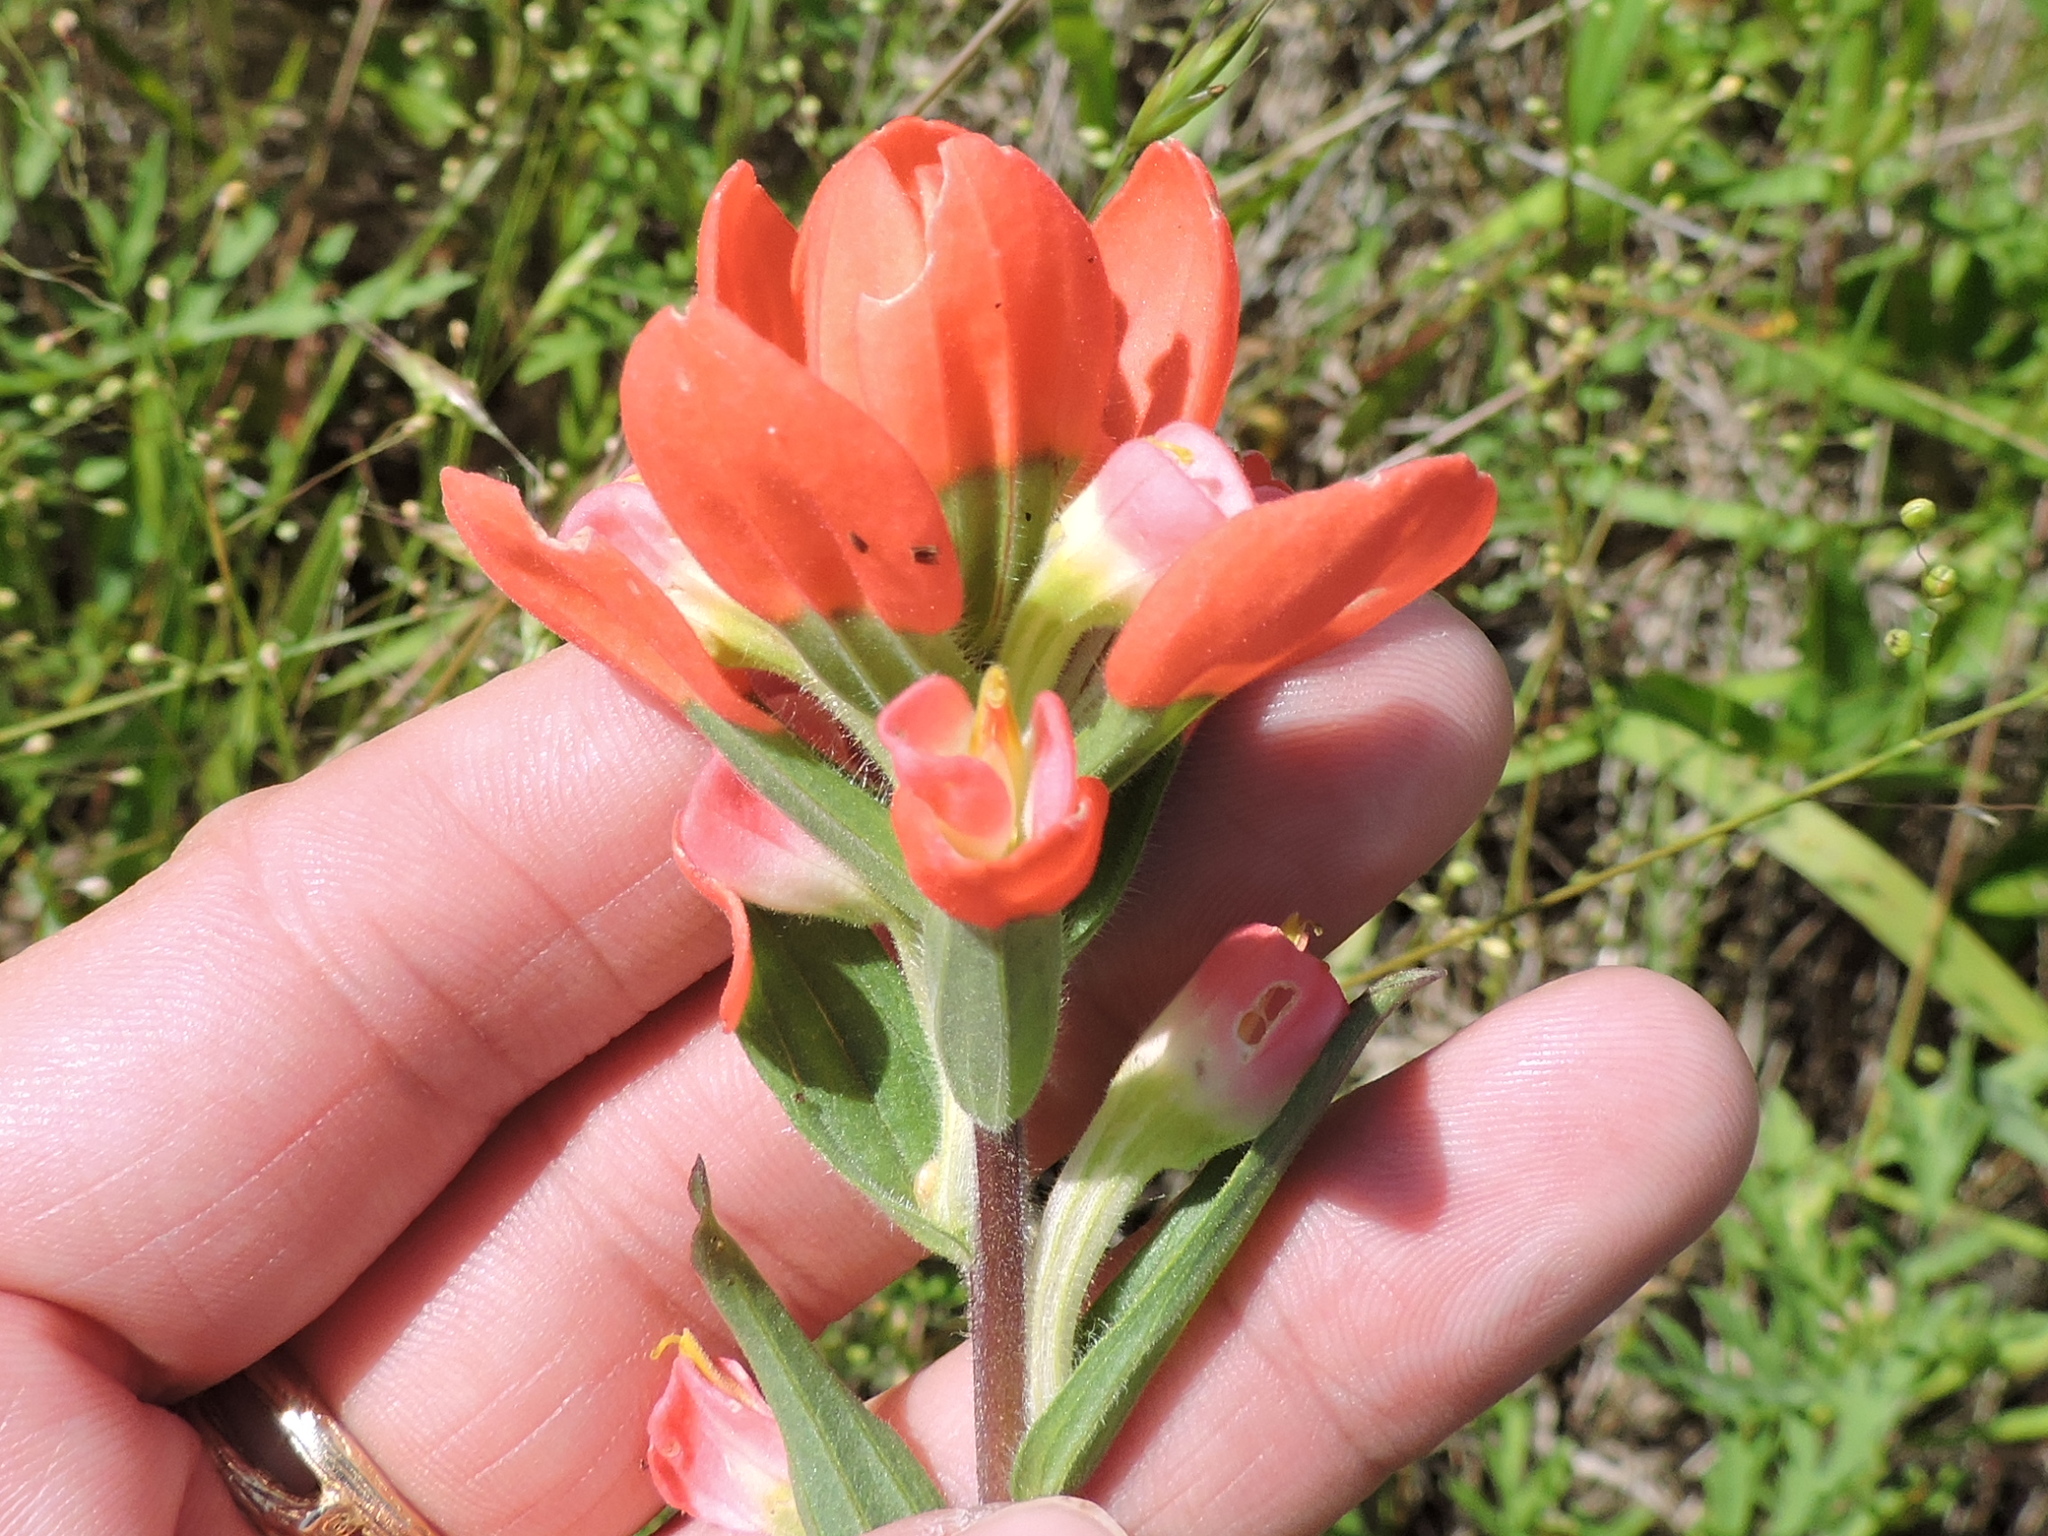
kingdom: Plantae
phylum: Tracheophyta
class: Magnoliopsida
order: Lamiales
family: Orobanchaceae
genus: Castilleja
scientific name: Castilleja indivisa
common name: Texas paintbrush
